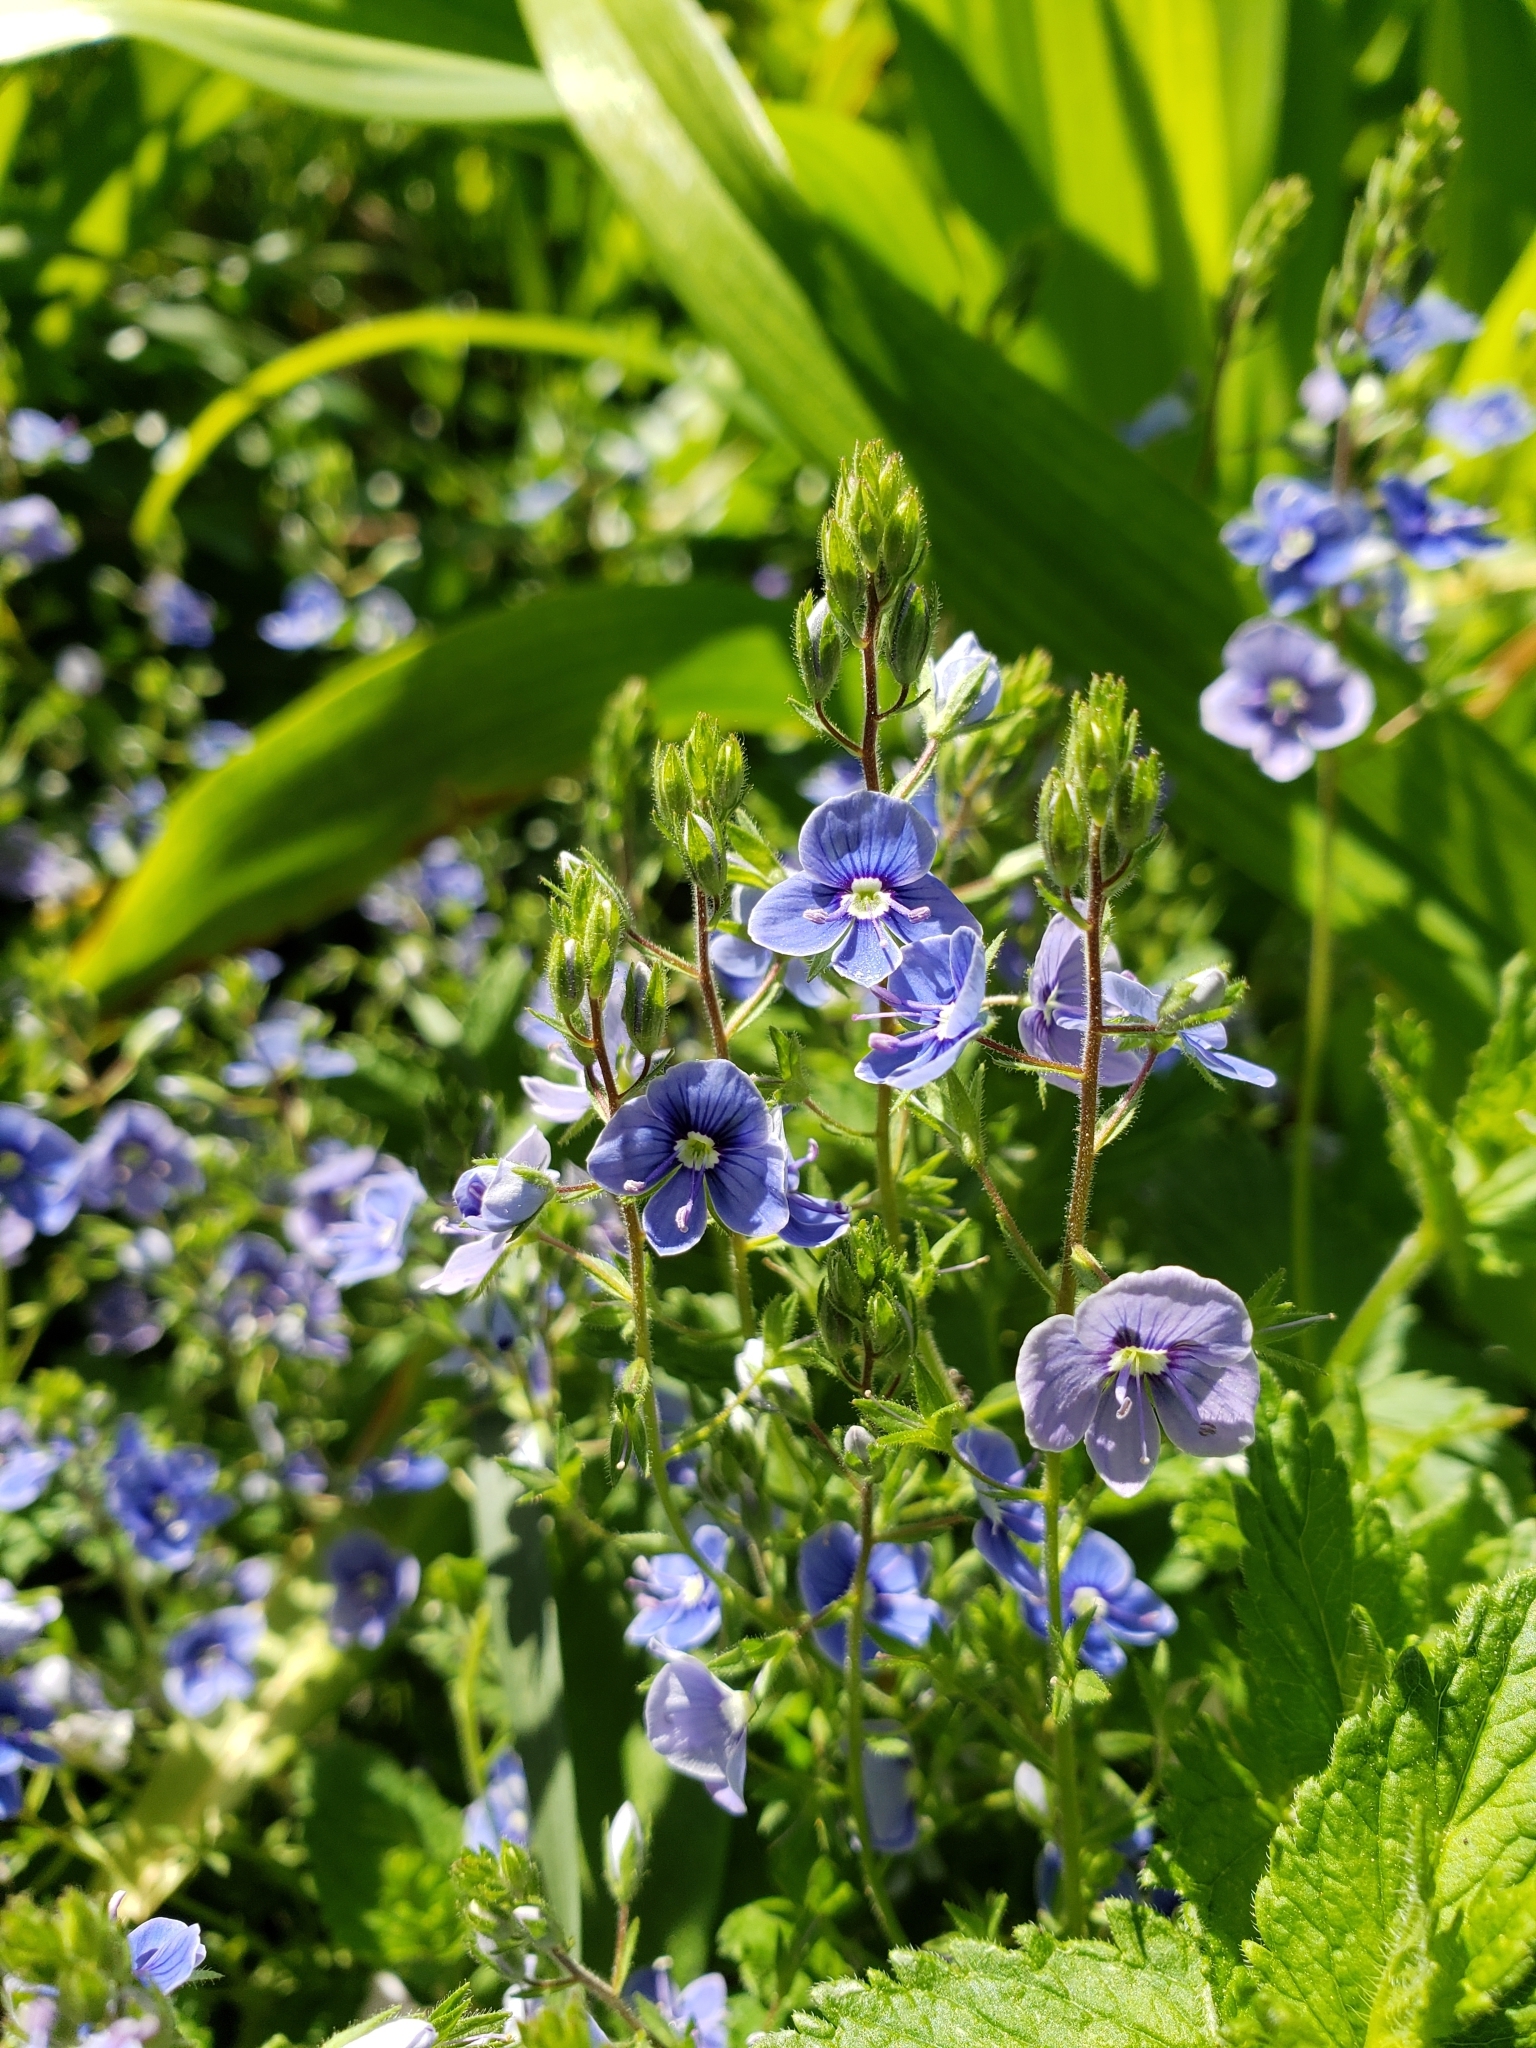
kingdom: Plantae
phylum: Tracheophyta
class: Magnoliopsida
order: Lamiales
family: Plantaginaceae
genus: Veronica
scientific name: Veronica chamaedrys
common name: Germander speedwell
